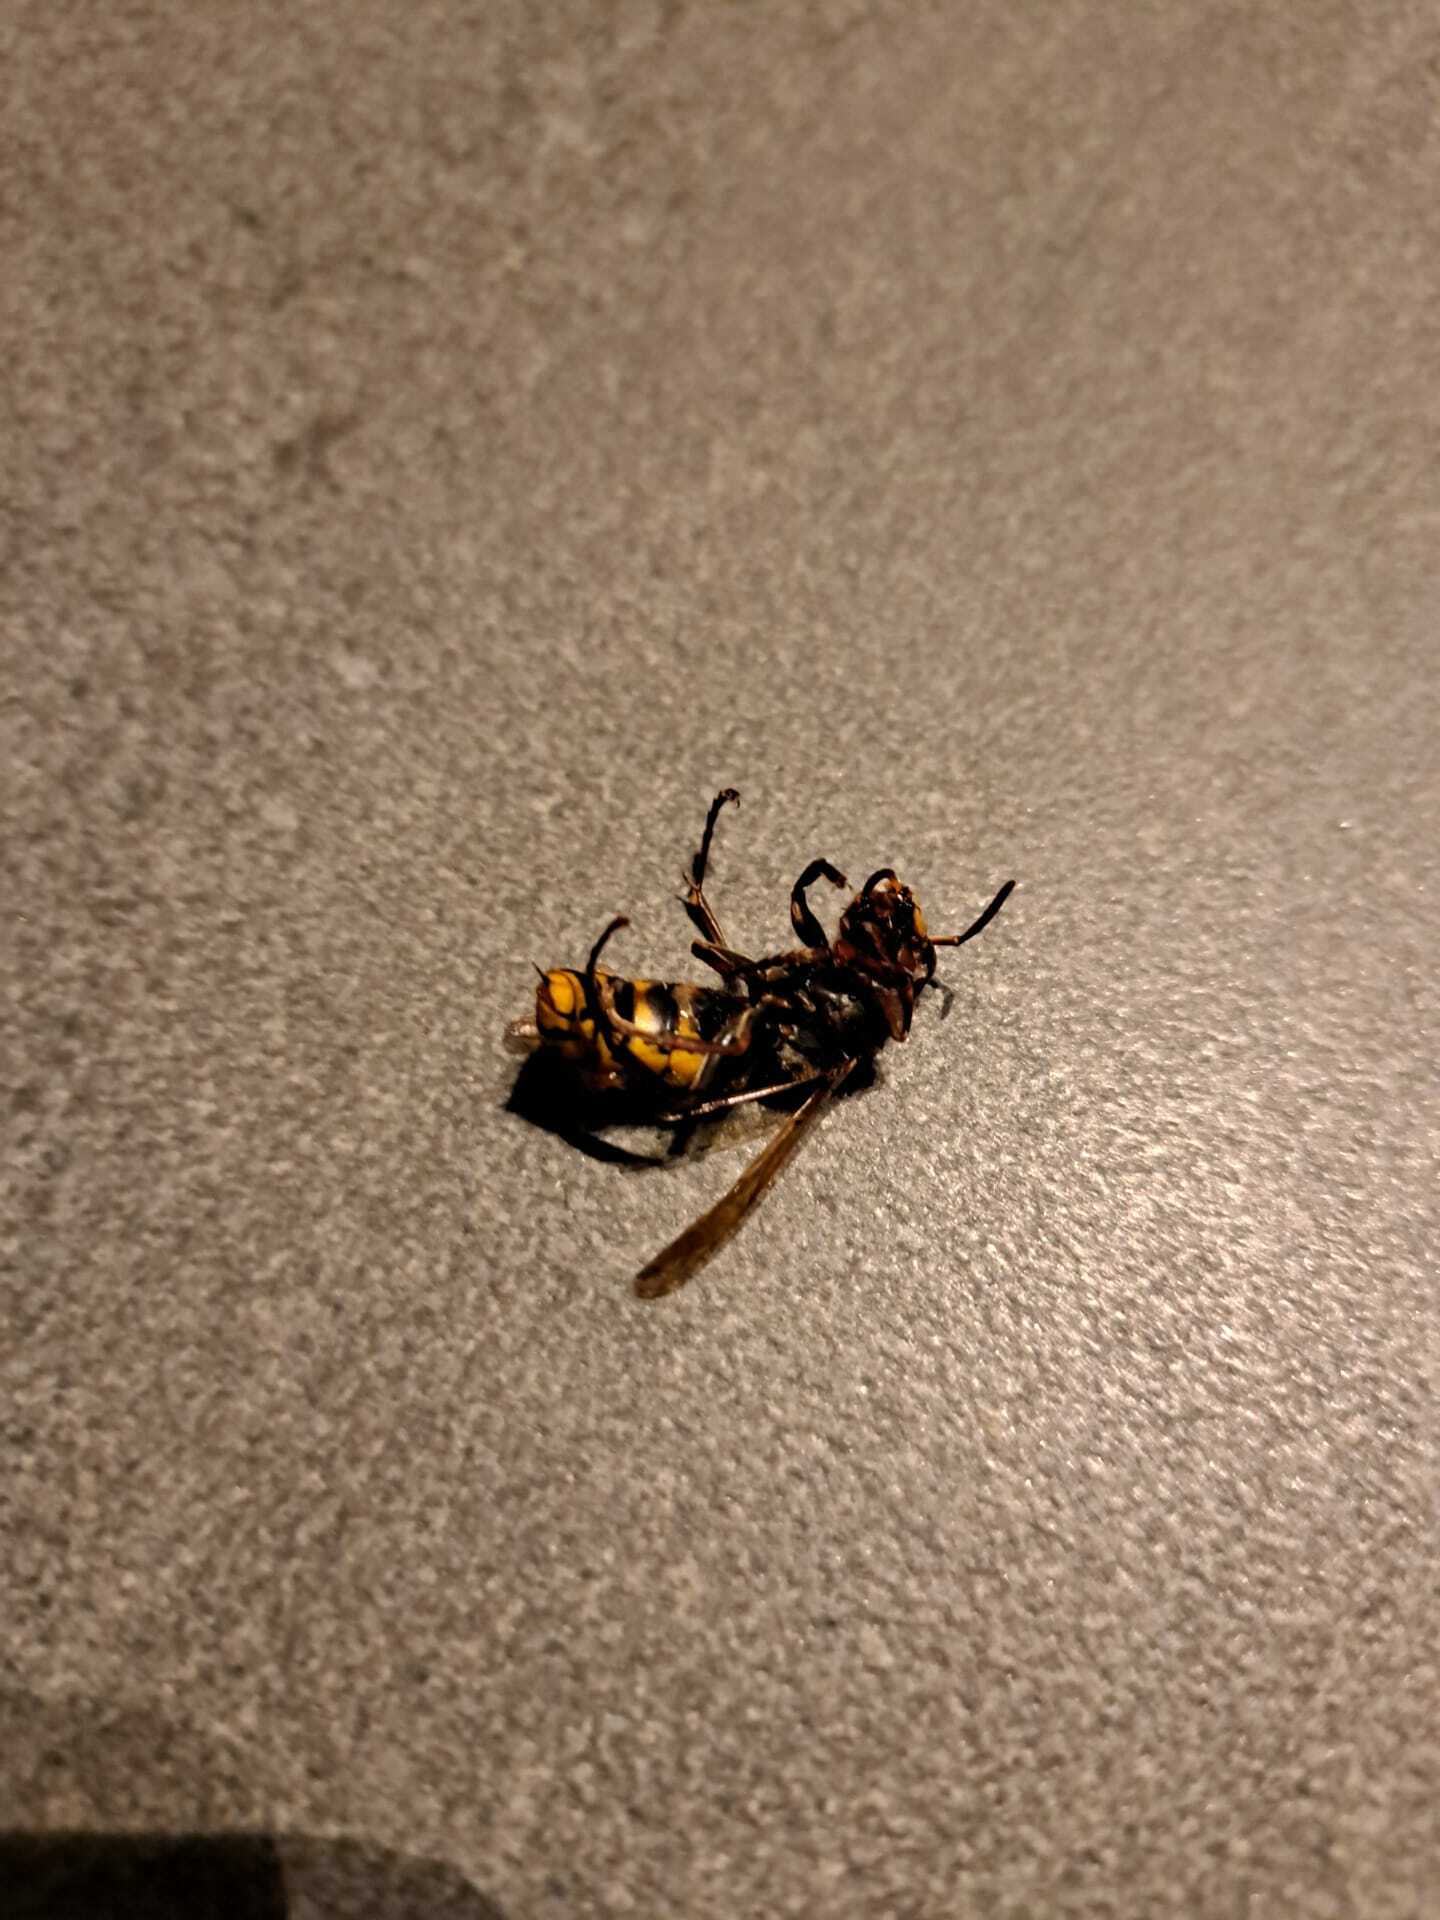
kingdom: Animalia
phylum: Arthropoda
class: Insecta
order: Hymenoptera
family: Vespidae
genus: Vespa
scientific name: Vespa crabro
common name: Hornet
